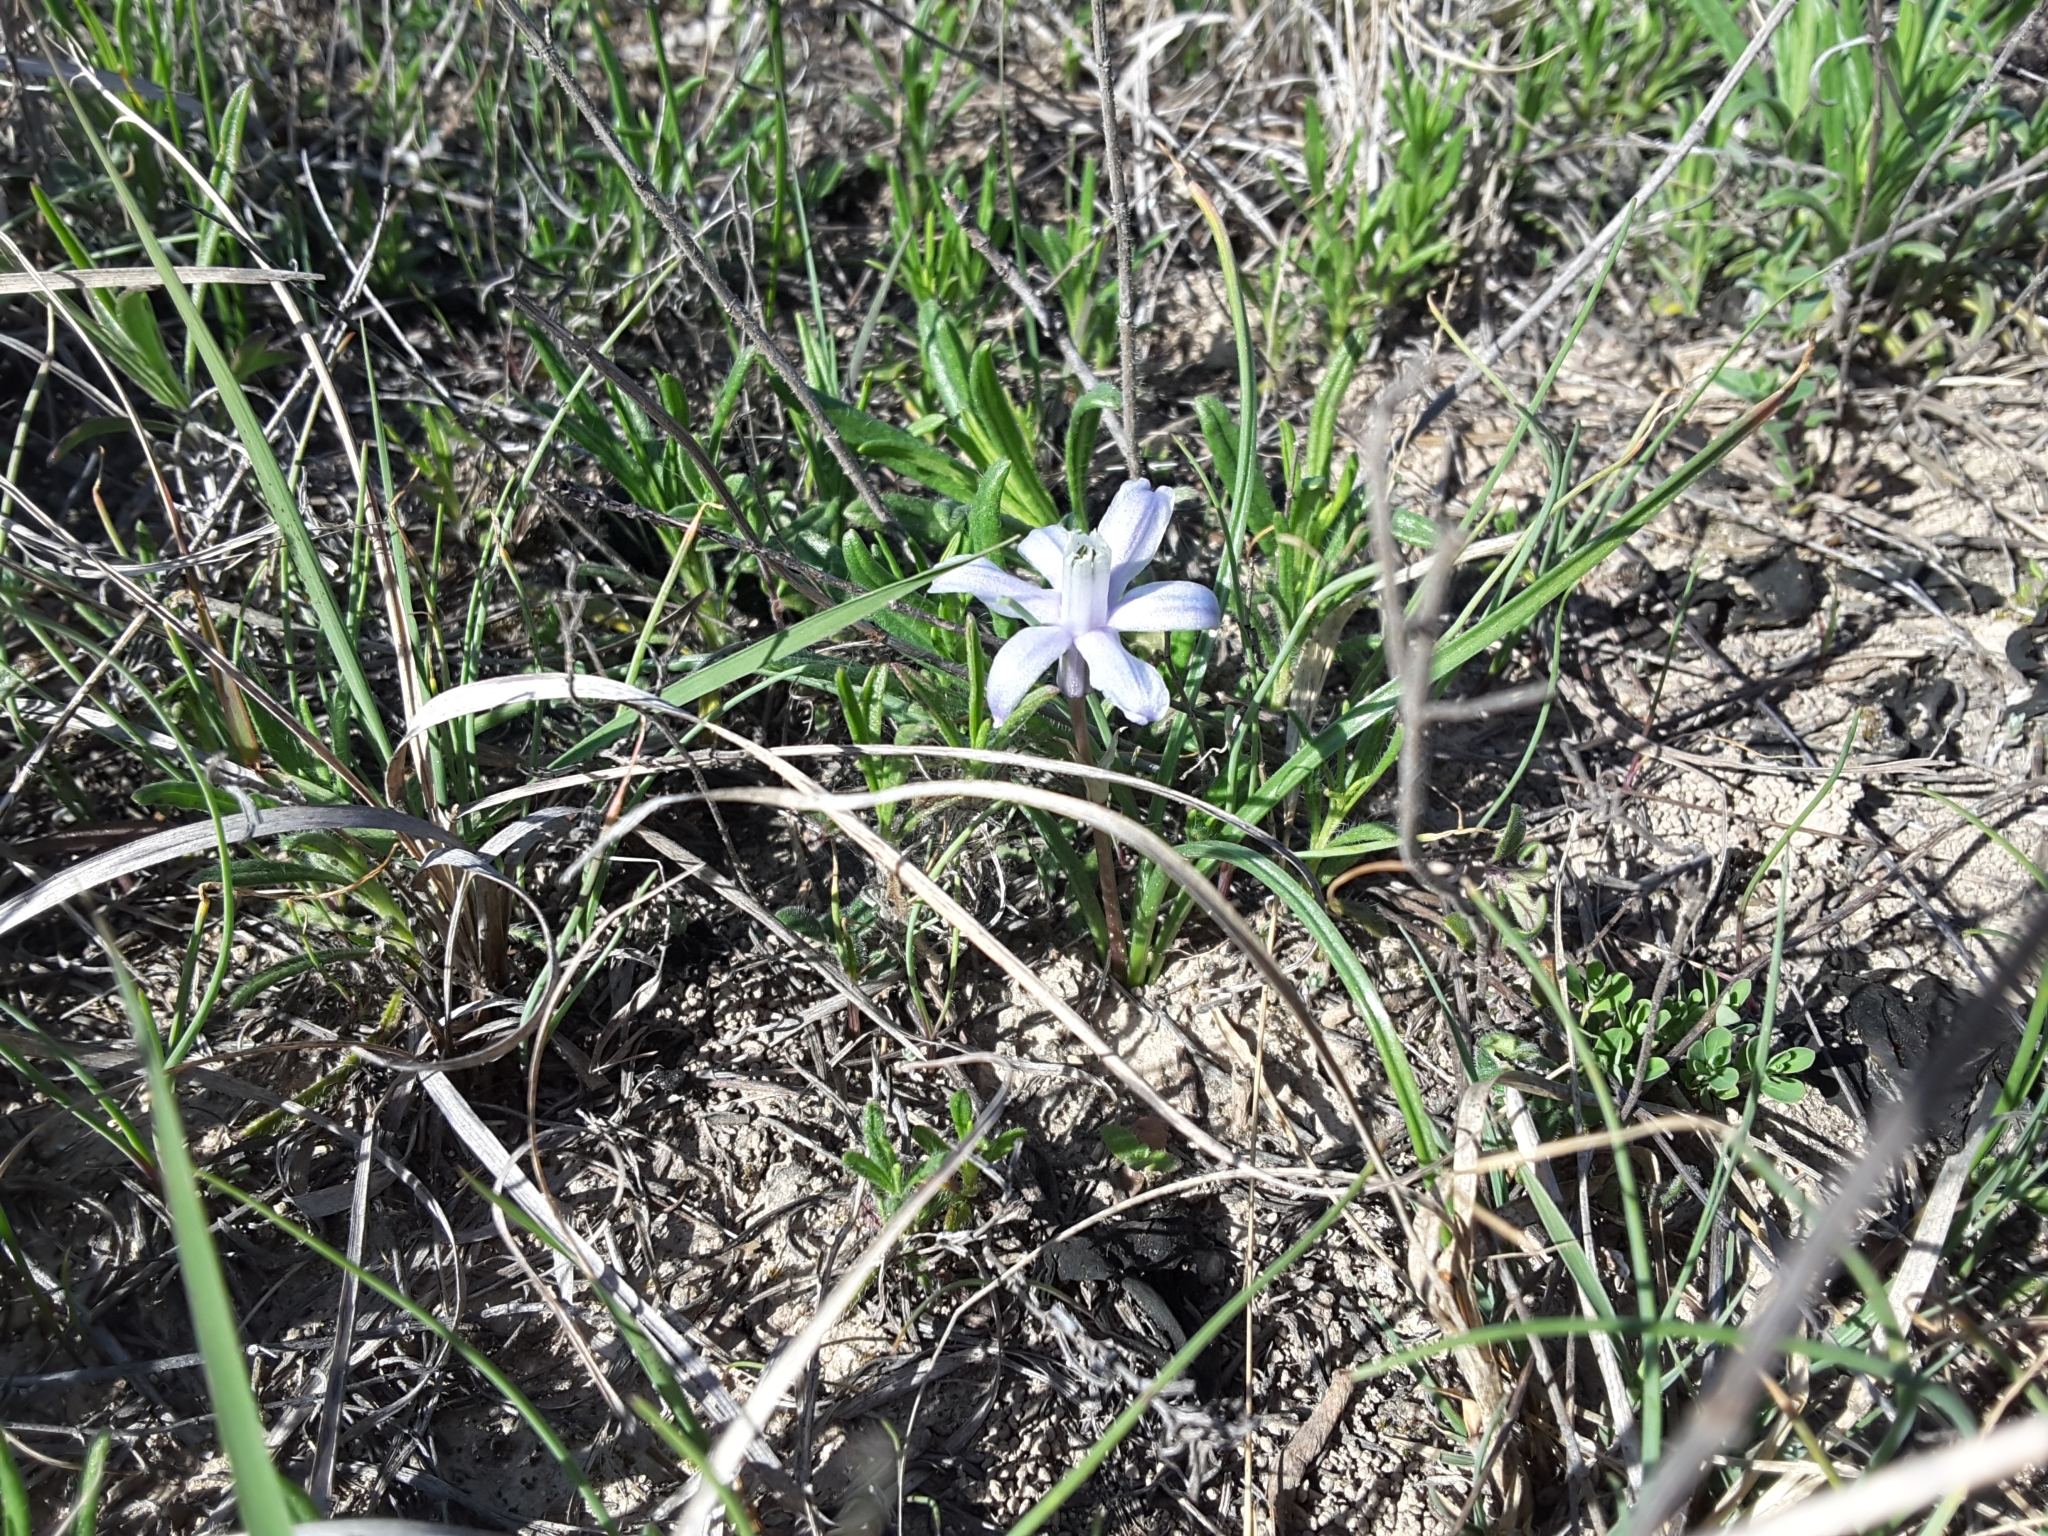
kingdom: Plantae
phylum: Tracheophyta
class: Liliopsida
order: Asparagales
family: Asparagaceae
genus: Androstephium
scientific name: Androstephium coeruleum
